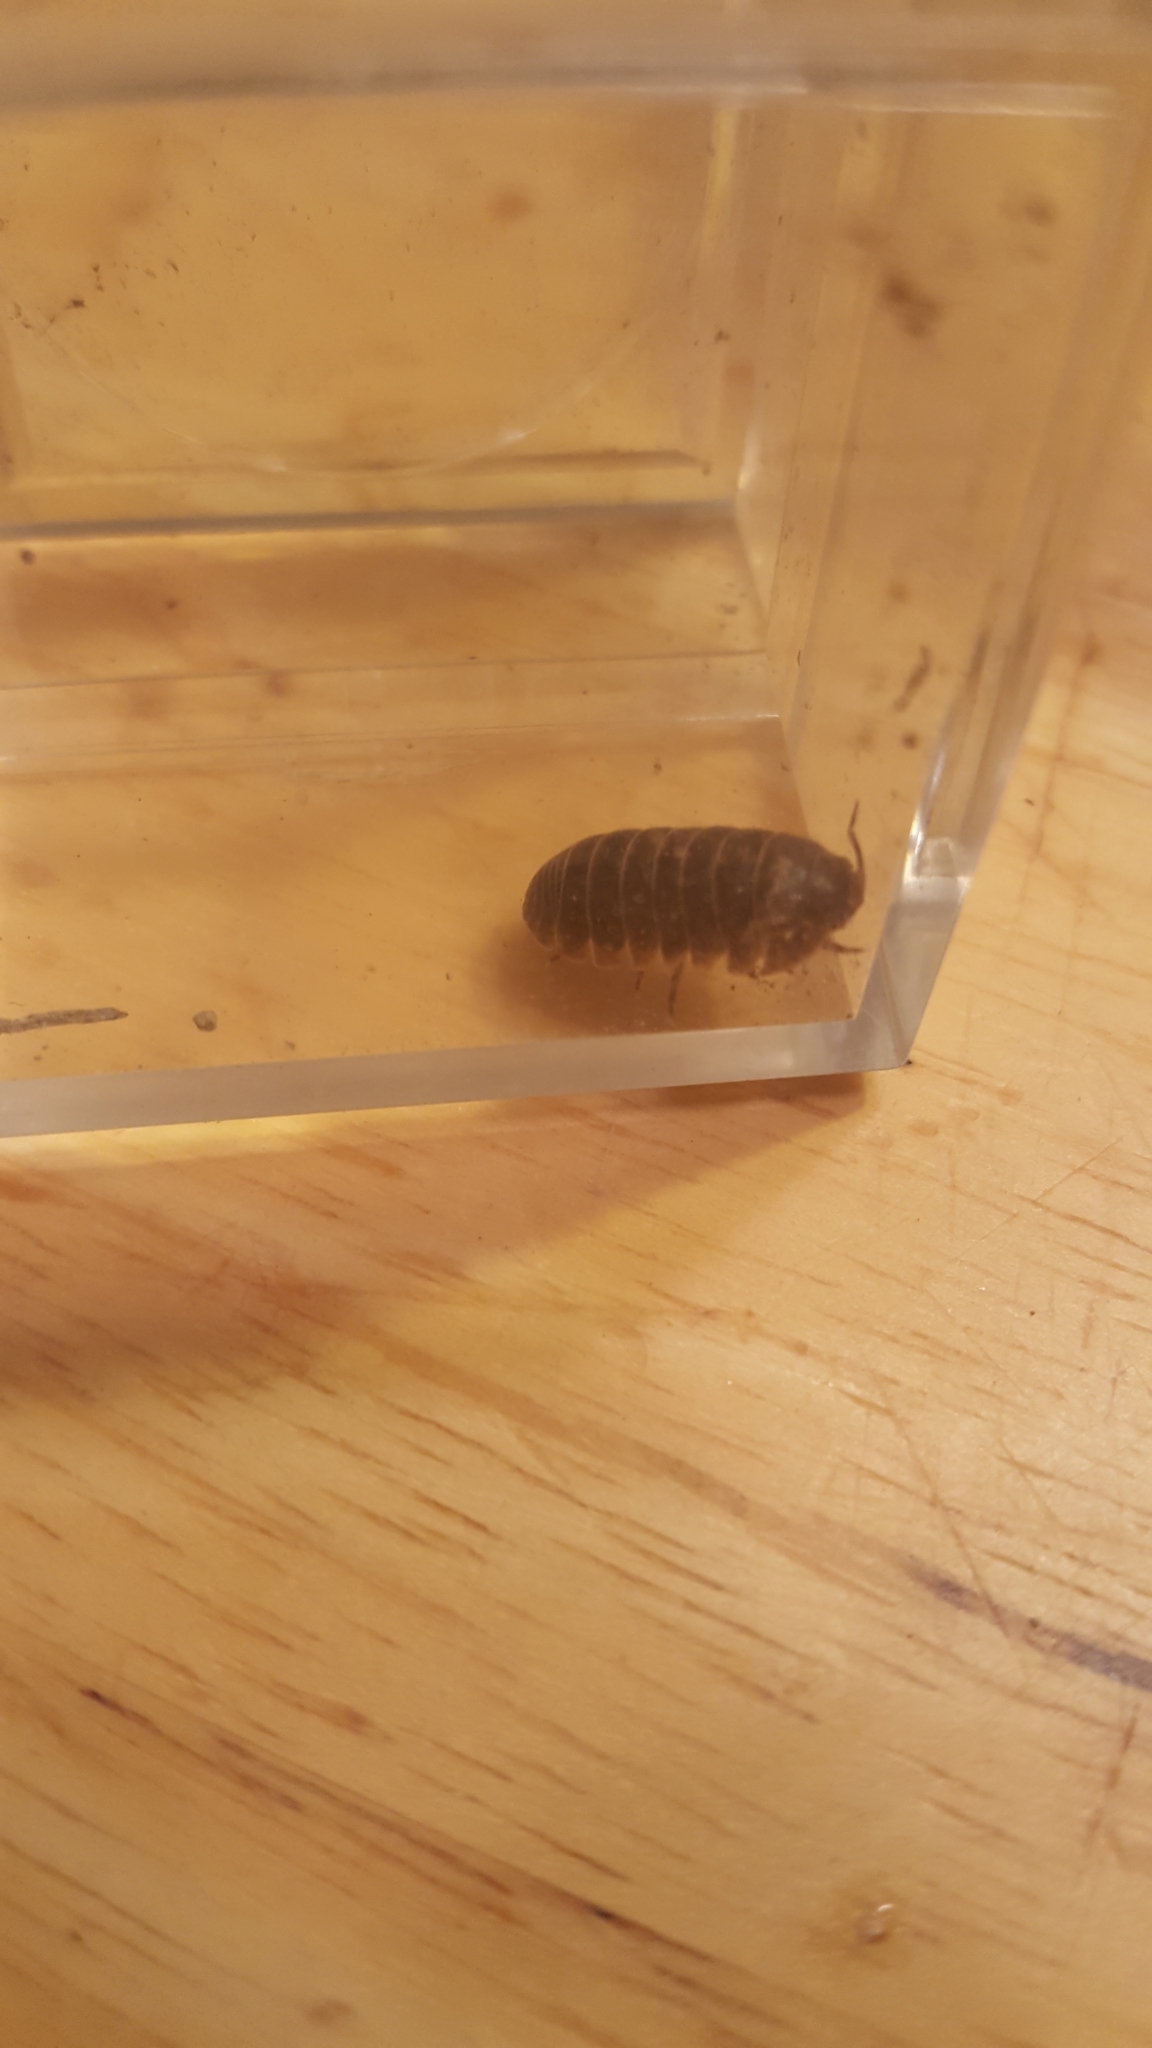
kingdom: Animalia
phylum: Arthropoda
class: Malacostraca
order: Isopoda
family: Armadillidiidae
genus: Armadillidium
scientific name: Armadillidium vulgare
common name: Common pill woodlouse
